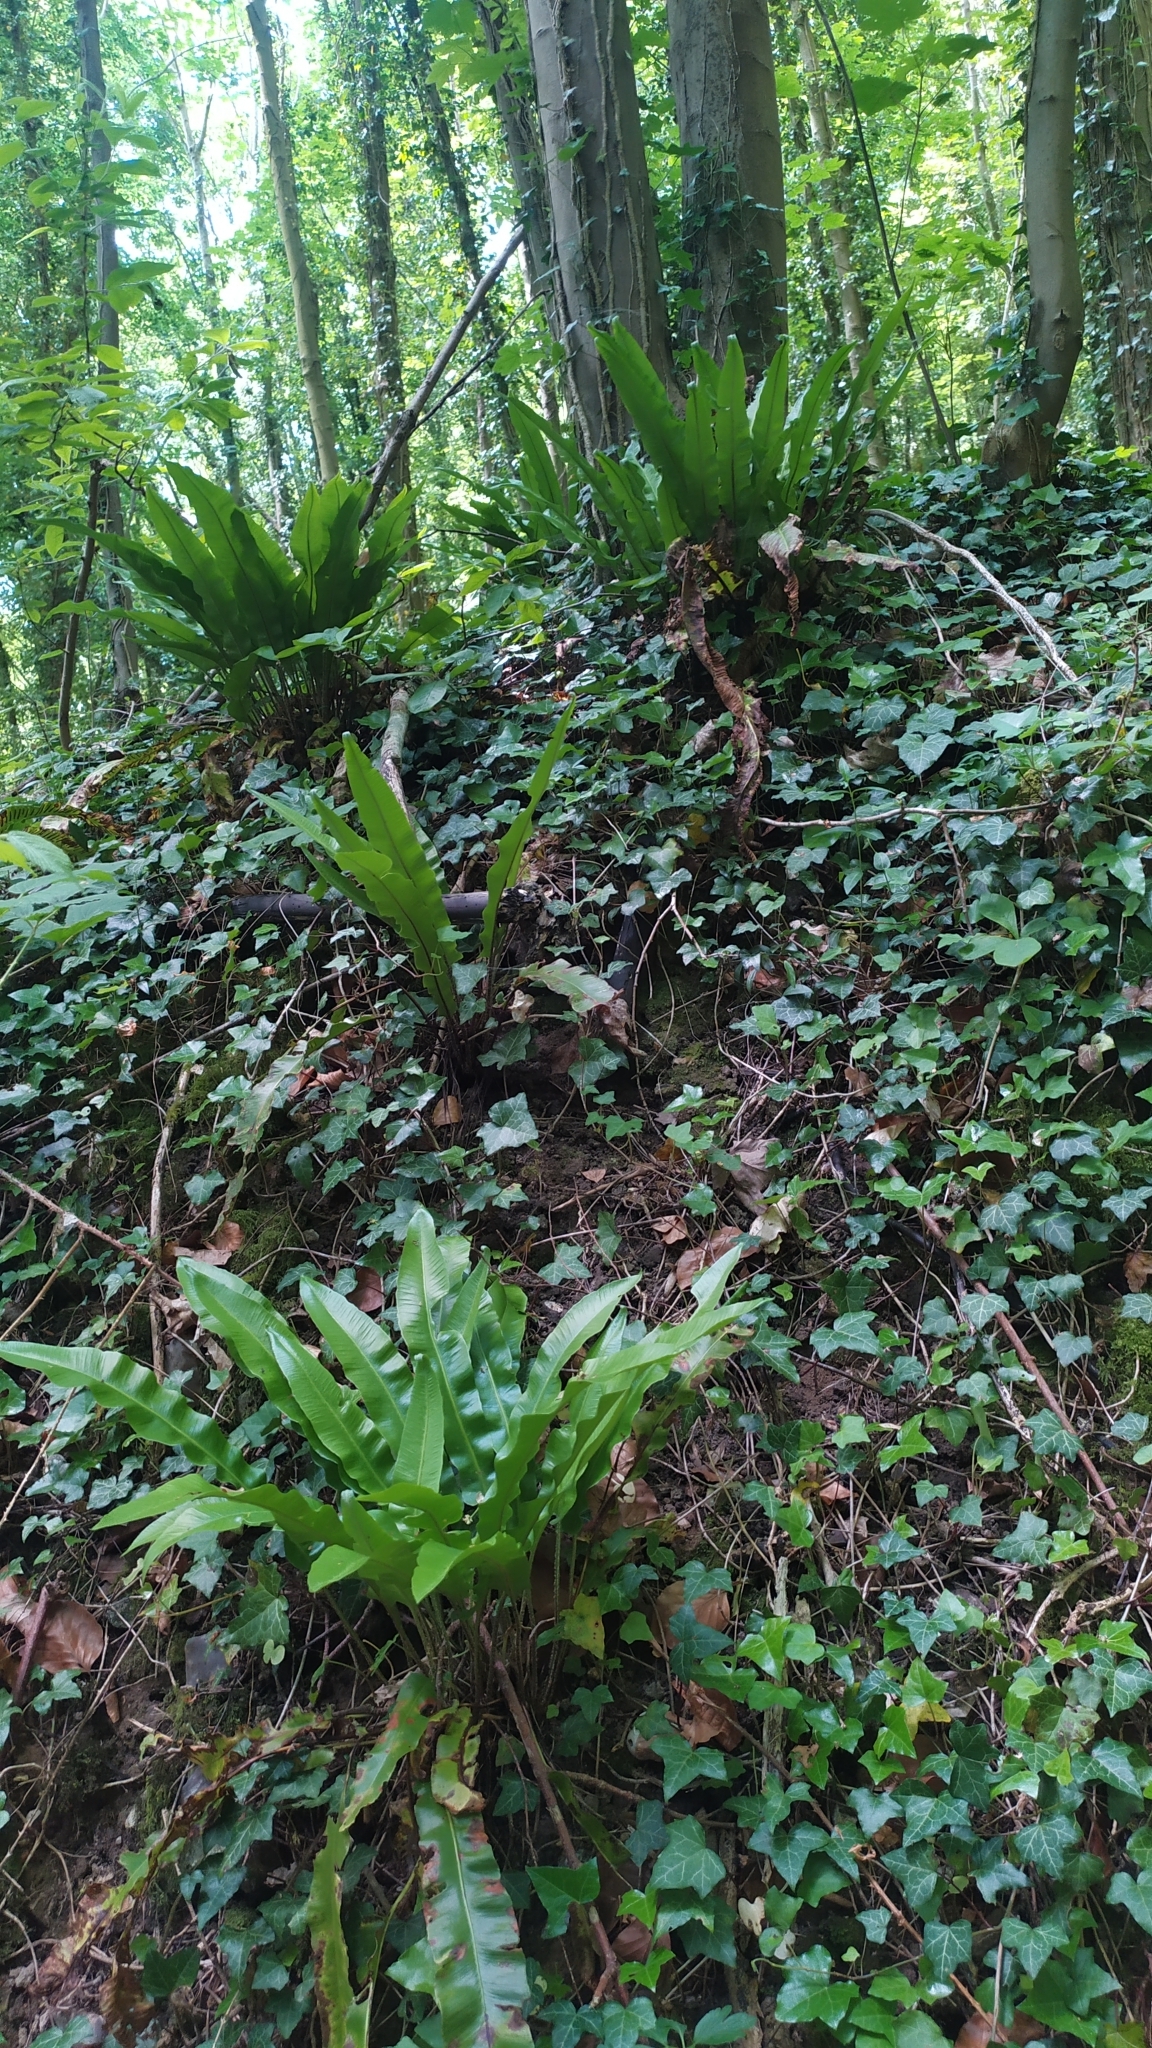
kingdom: Plantae
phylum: Tracheophyta
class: Polypodiopsida
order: Polypodiales
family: Aspleniaceae
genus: Asplenium
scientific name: Asplenium scolopendrium
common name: Hart's-tongue fern
